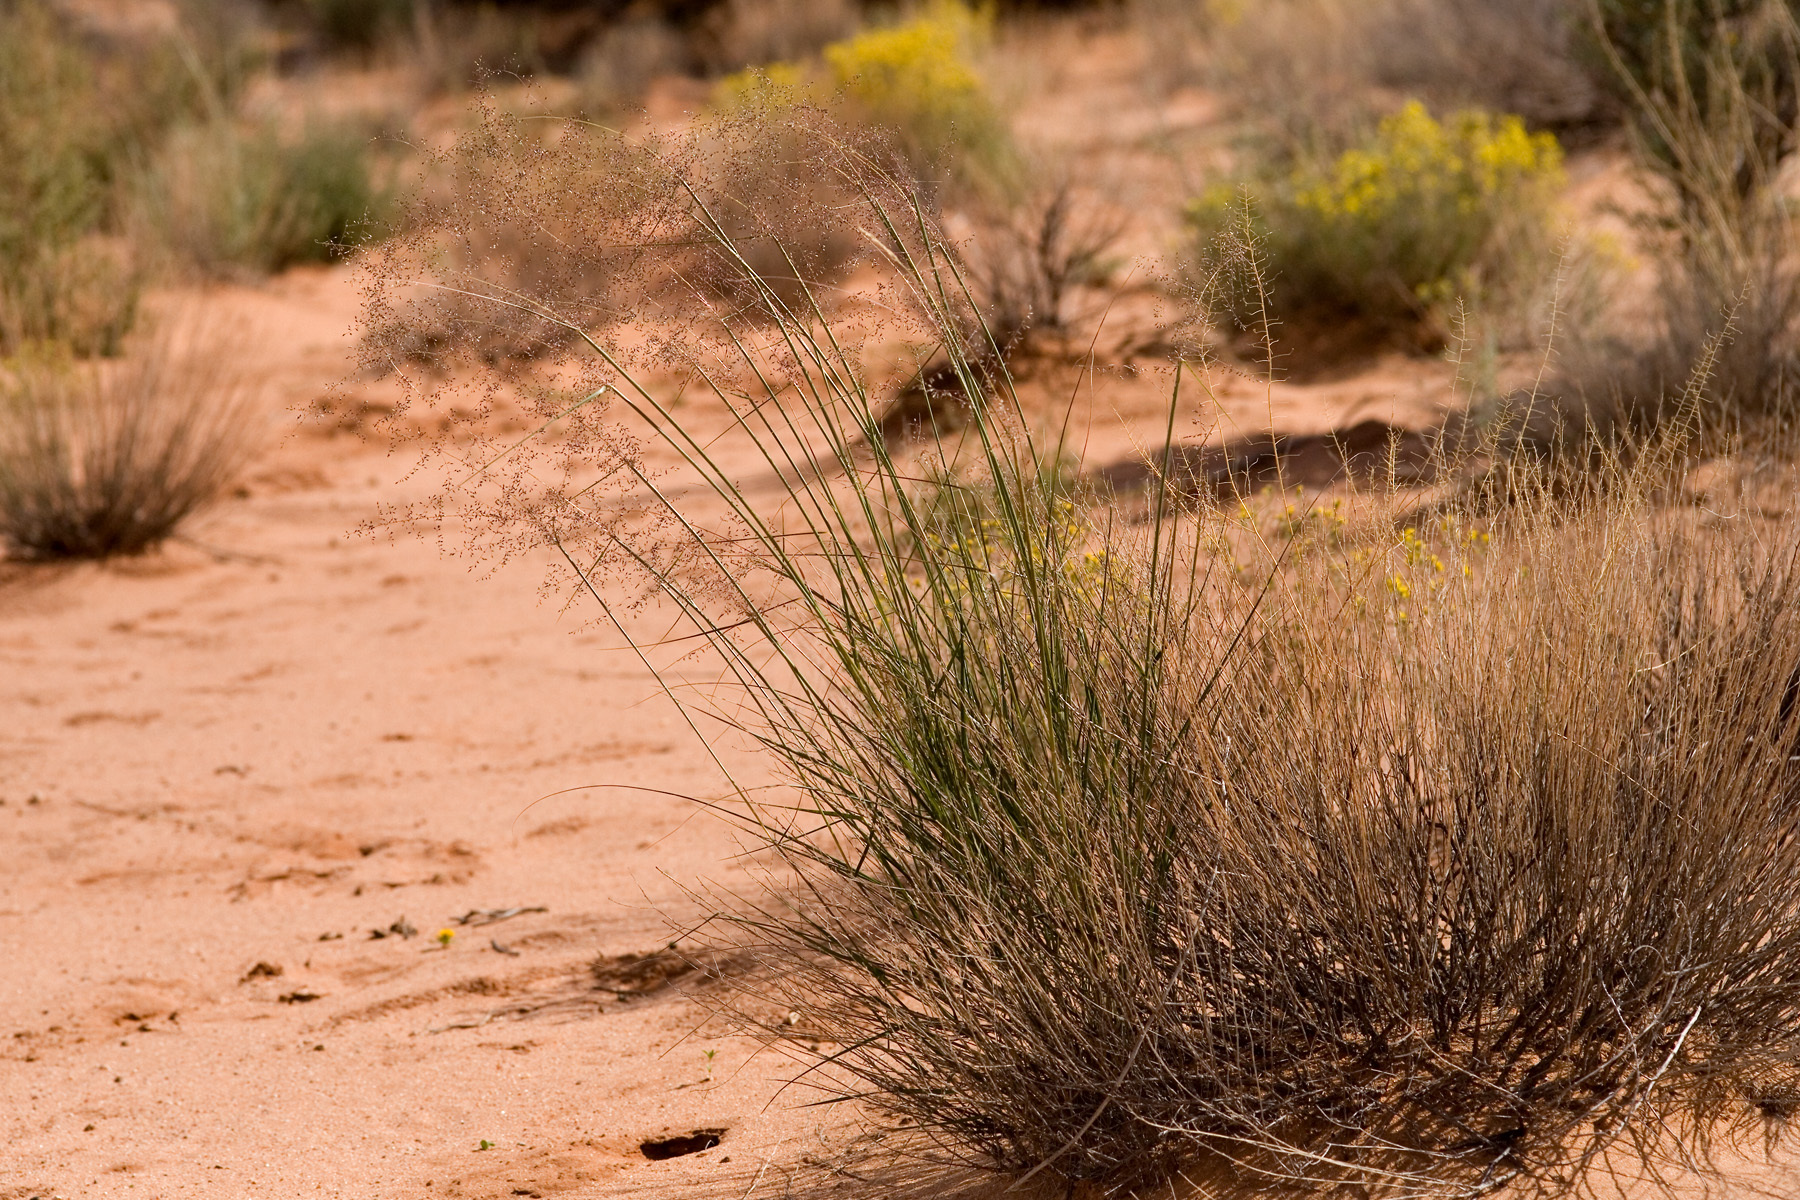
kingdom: Plantae
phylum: Tracheophyta
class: Liliopsida
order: Poales
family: Poaceae
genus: Sporobolus
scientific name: Sporobolus flexuosus
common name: Mesa dropseed
